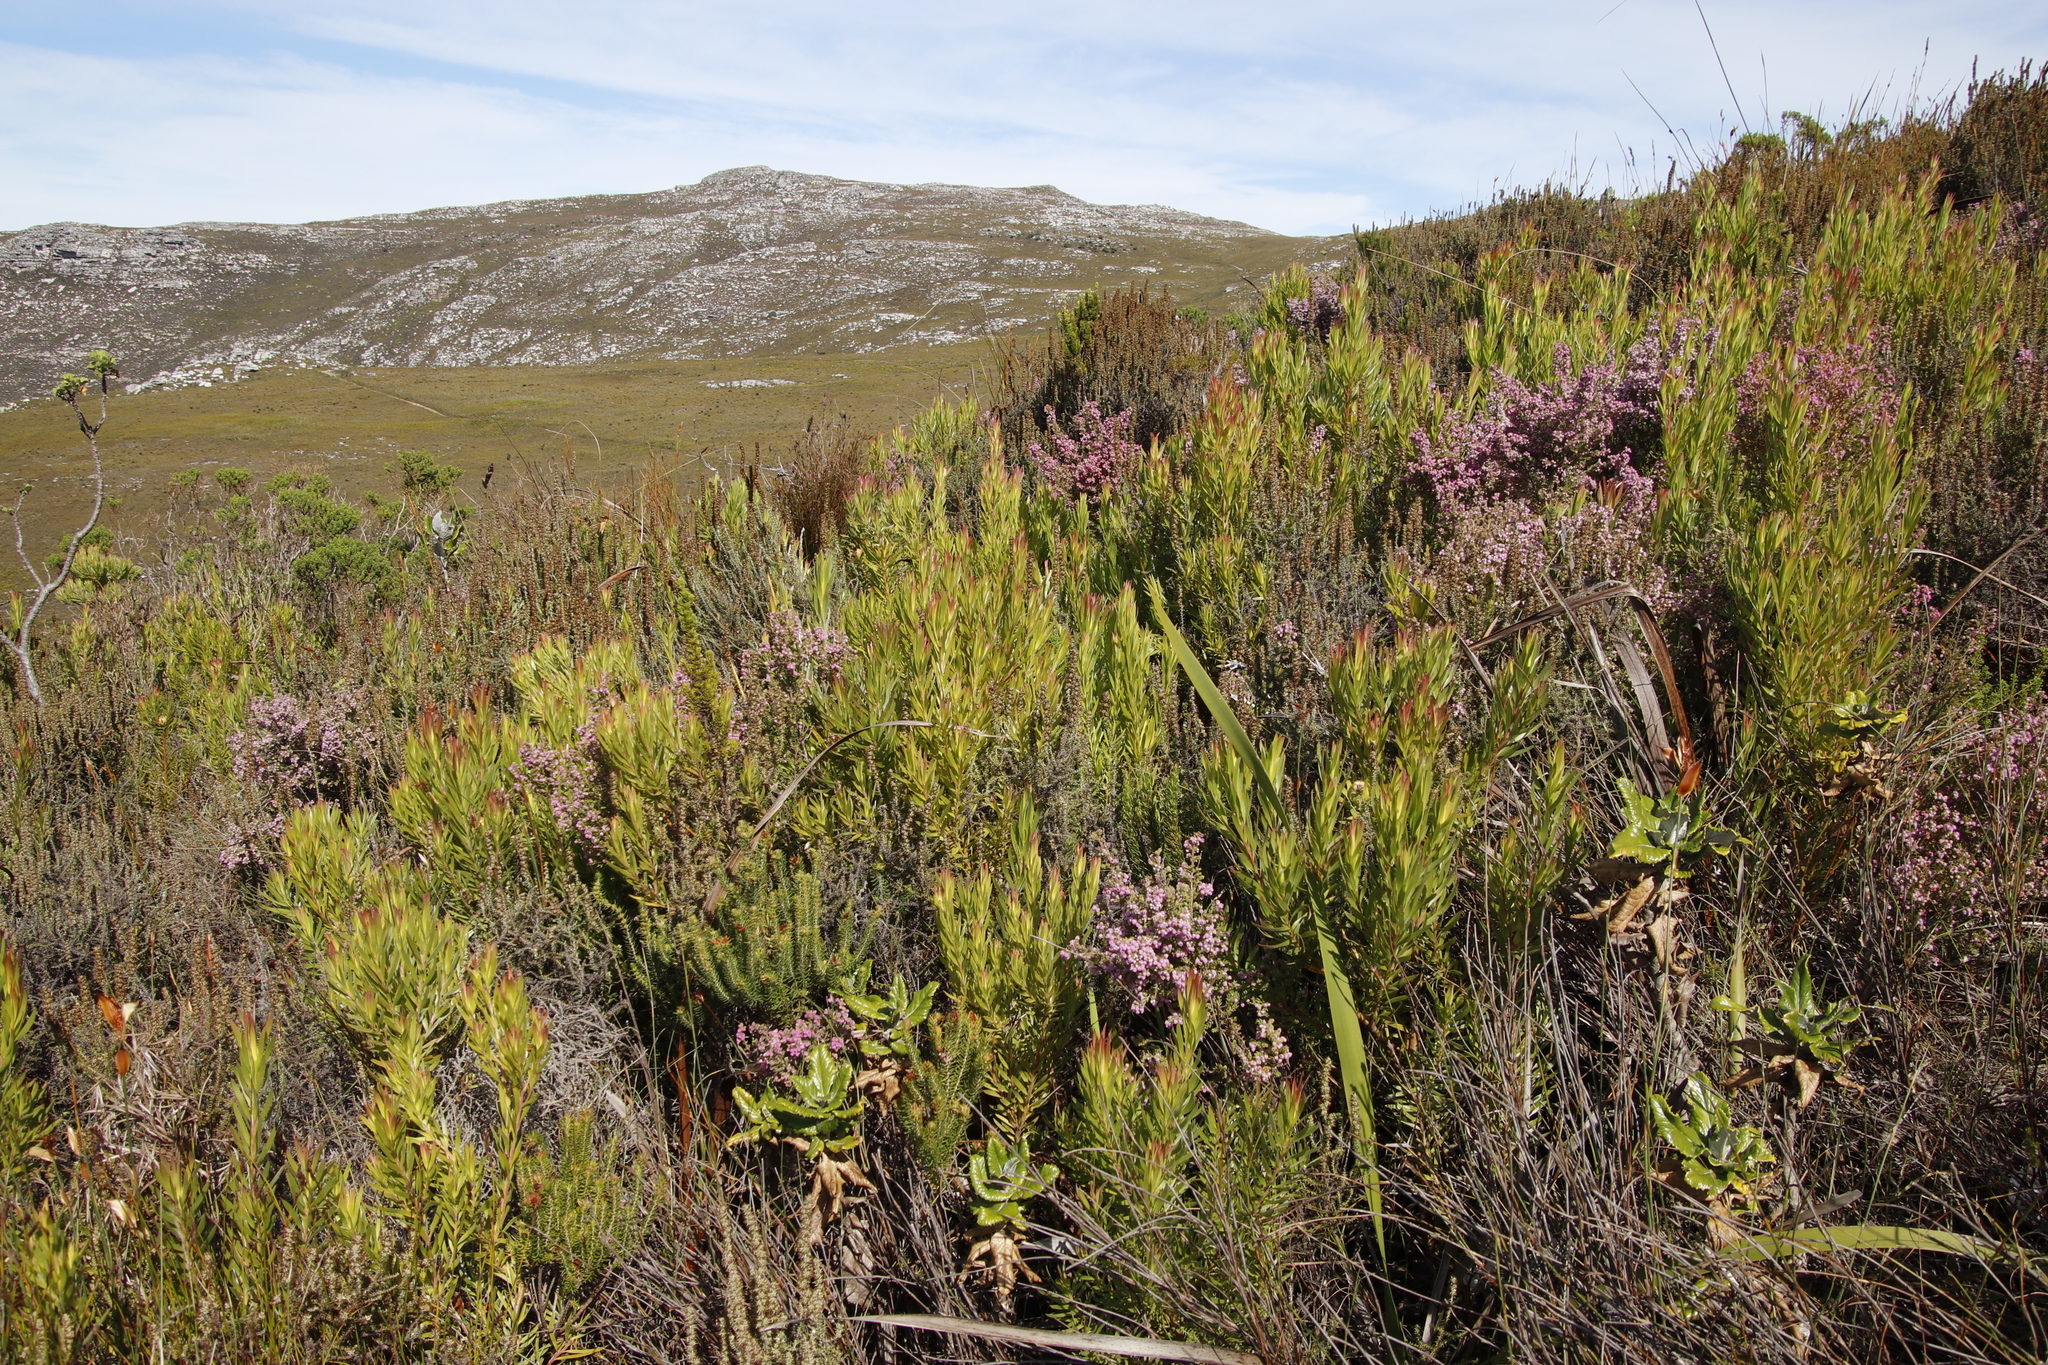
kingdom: Plantae
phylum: Tracheophyta
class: Magnoliopsida
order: Proteales
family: Proteaceae
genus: Leucadendron
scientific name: Leucadendron xanthoconus
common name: Sickle-leaf conebush
